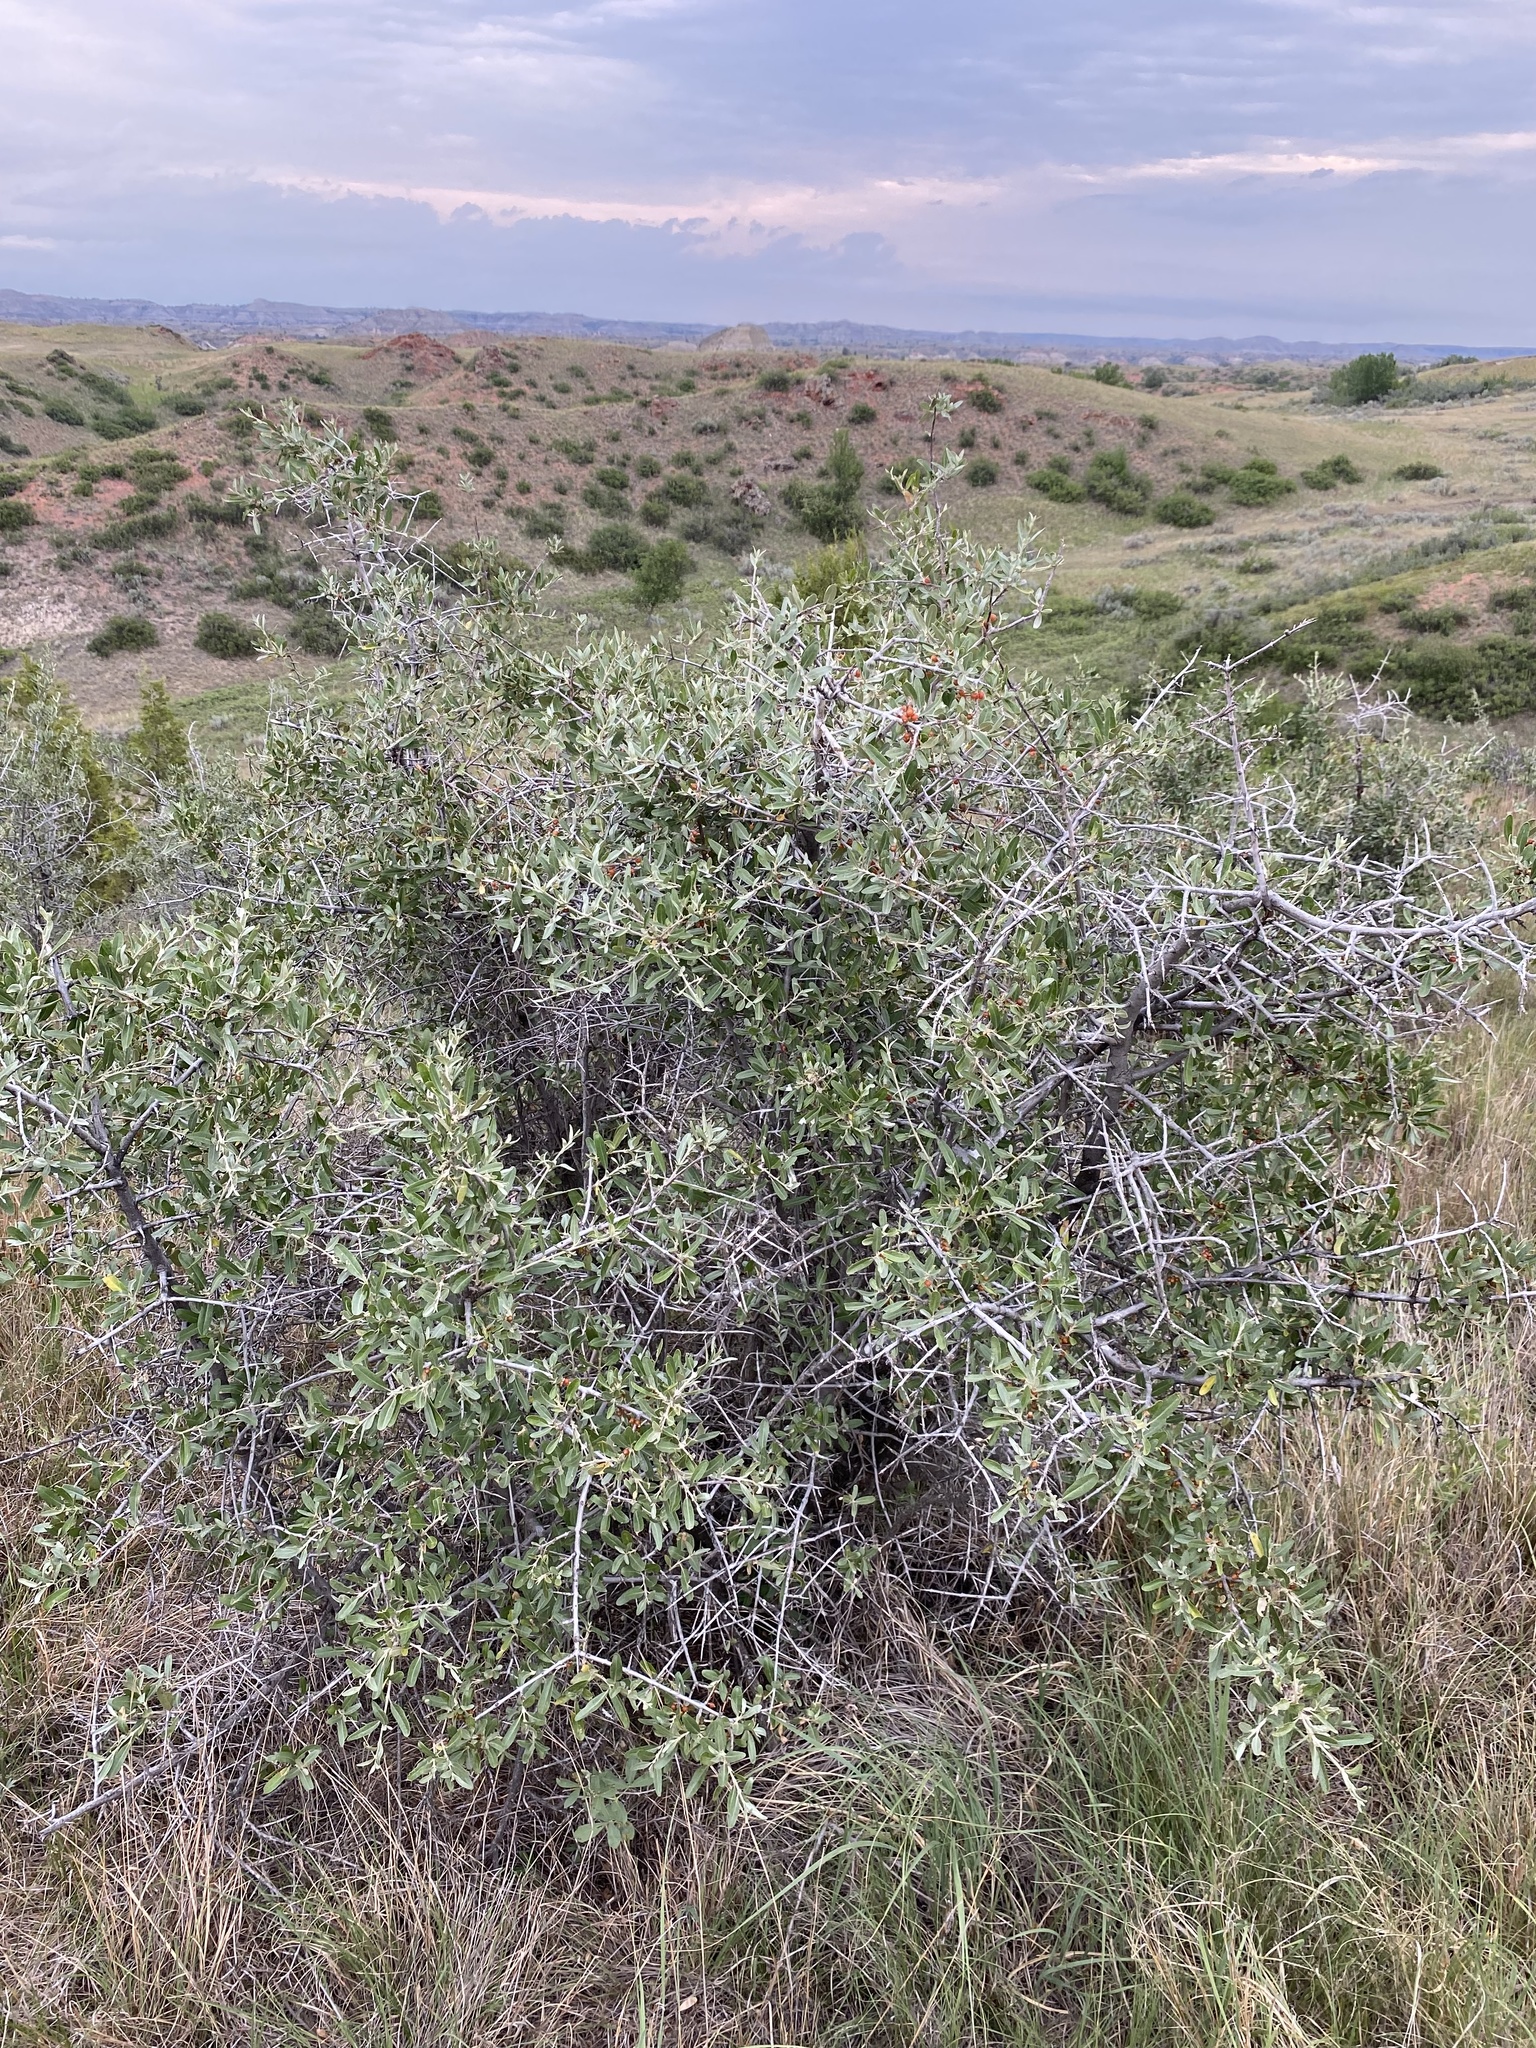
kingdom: Plantae
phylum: Tracheophyta
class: Magnoliopsida
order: Rosales
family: Elaeagnaceae
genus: Shepherdia
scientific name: Shepherdia argentea
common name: Silver buffaloberry
